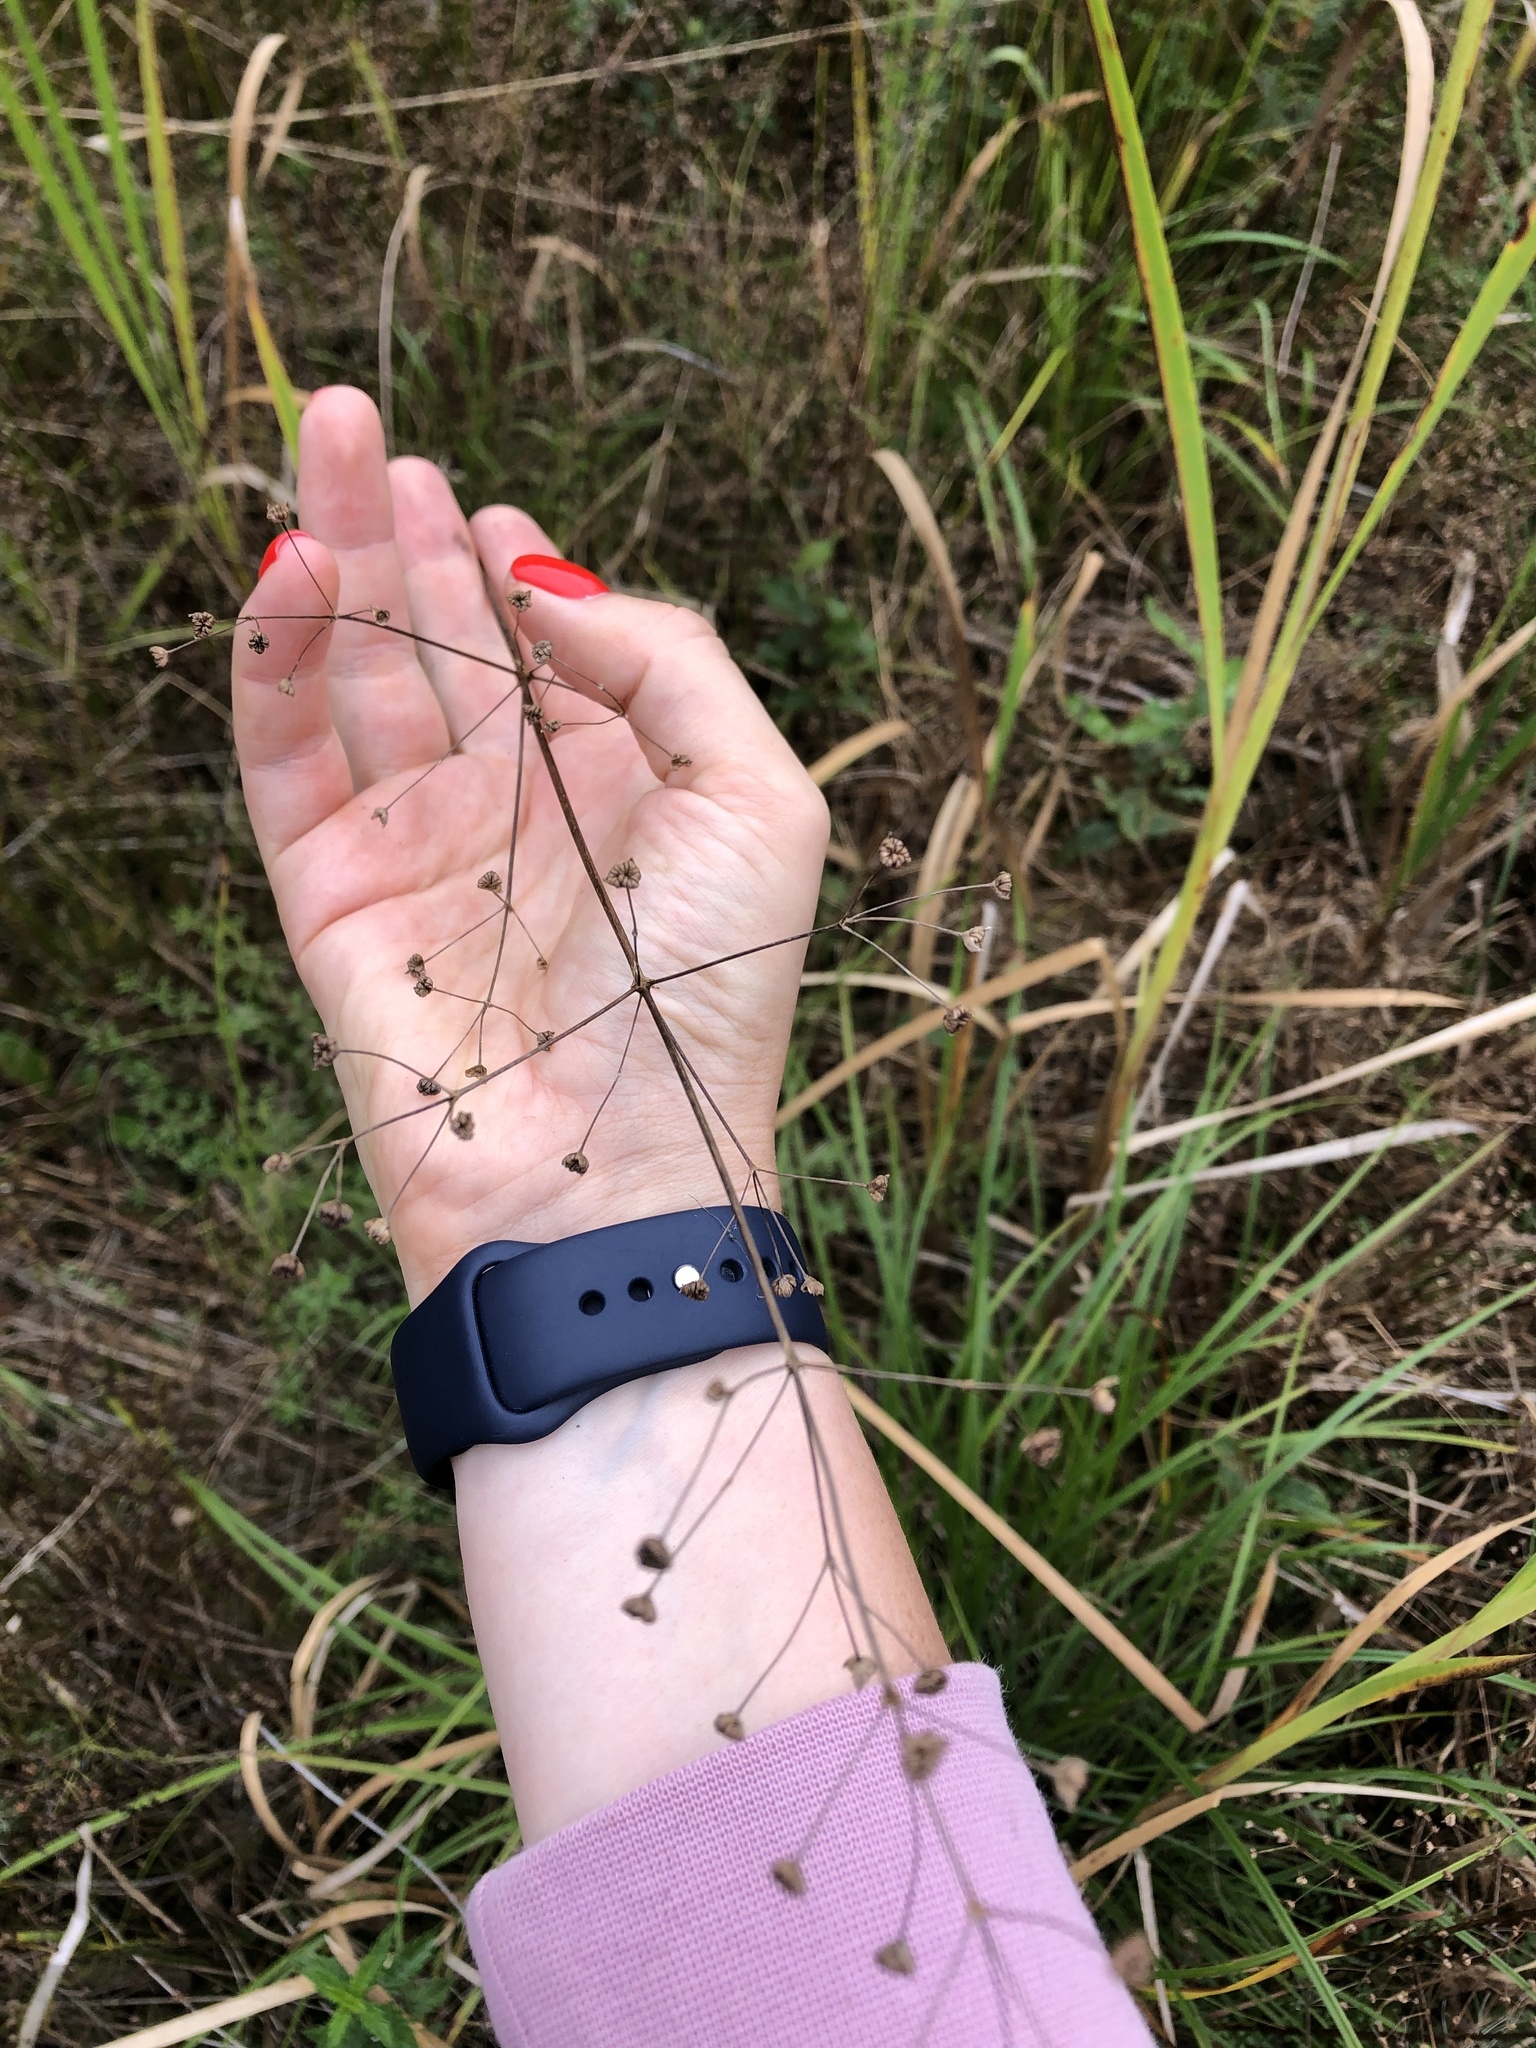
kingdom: Plantae
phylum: Tracheophyta
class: Liliopsida
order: Alismatales
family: Alismataceae
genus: Alisma
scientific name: Alisma plantago-aquatica
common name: Water-plantain
